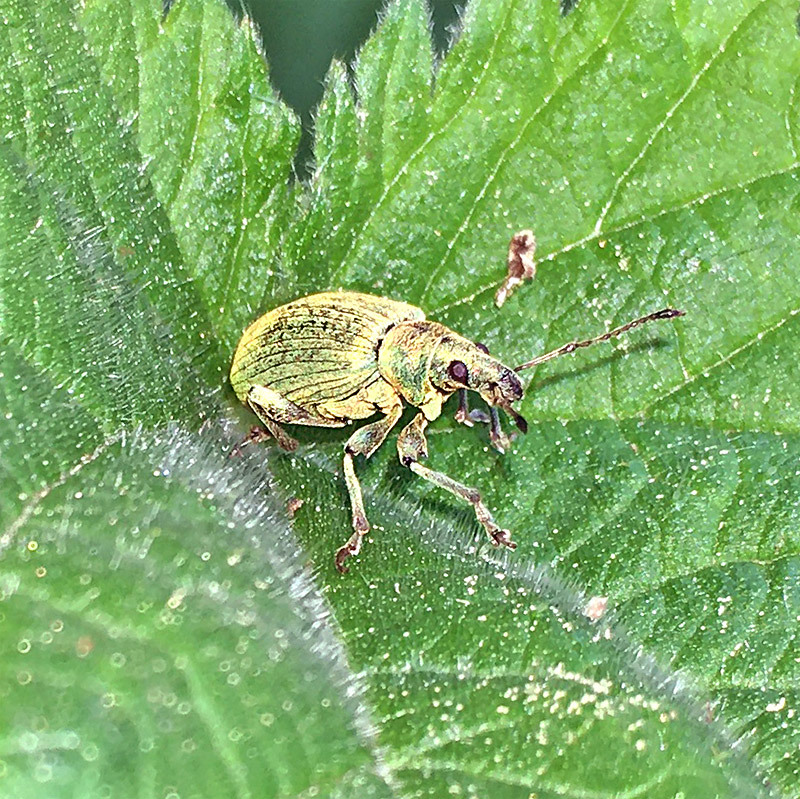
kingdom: Animalia
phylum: Arthropoda
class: Insecta
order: Coleoptera
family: Curculionidae
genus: Phyllobius
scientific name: Phyllobius pomaceus
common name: Green nettle weevil
